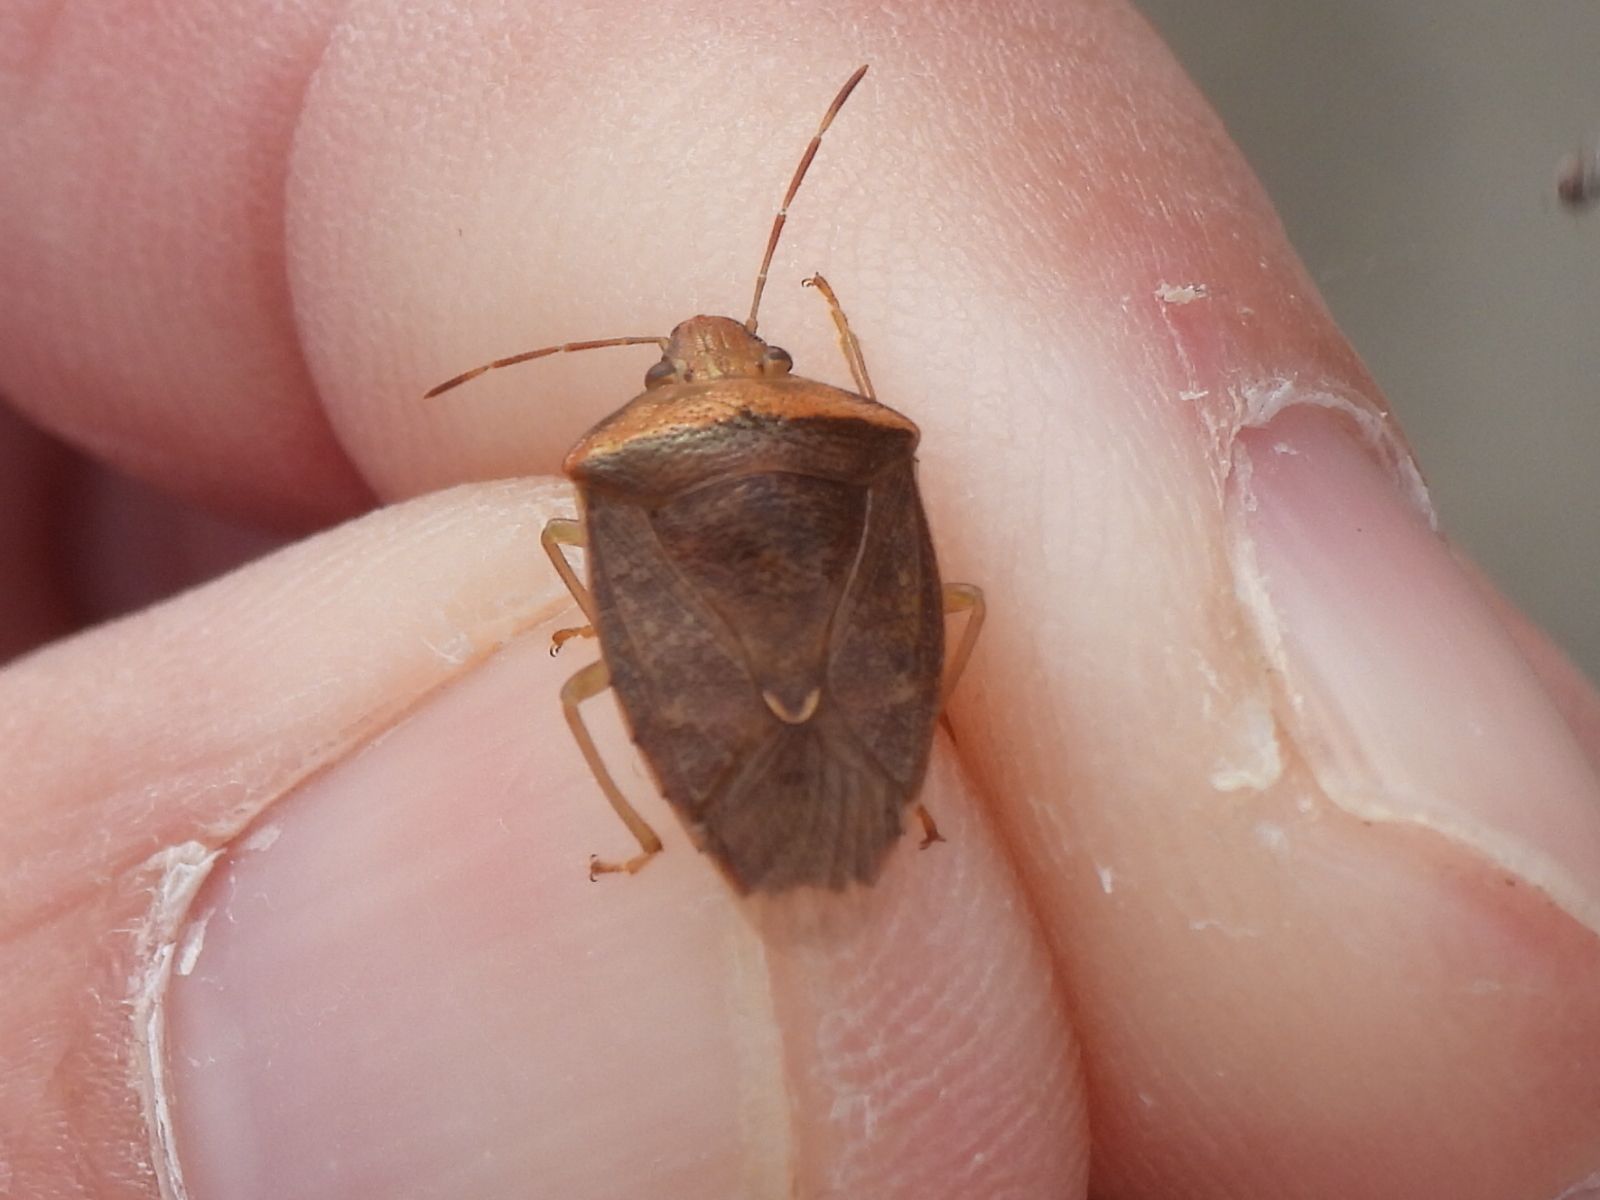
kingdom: Animalia
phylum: Arthropoda
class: Insecta
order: Hemiptera
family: Pentatomidae
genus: Banasa
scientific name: Banasa calva
